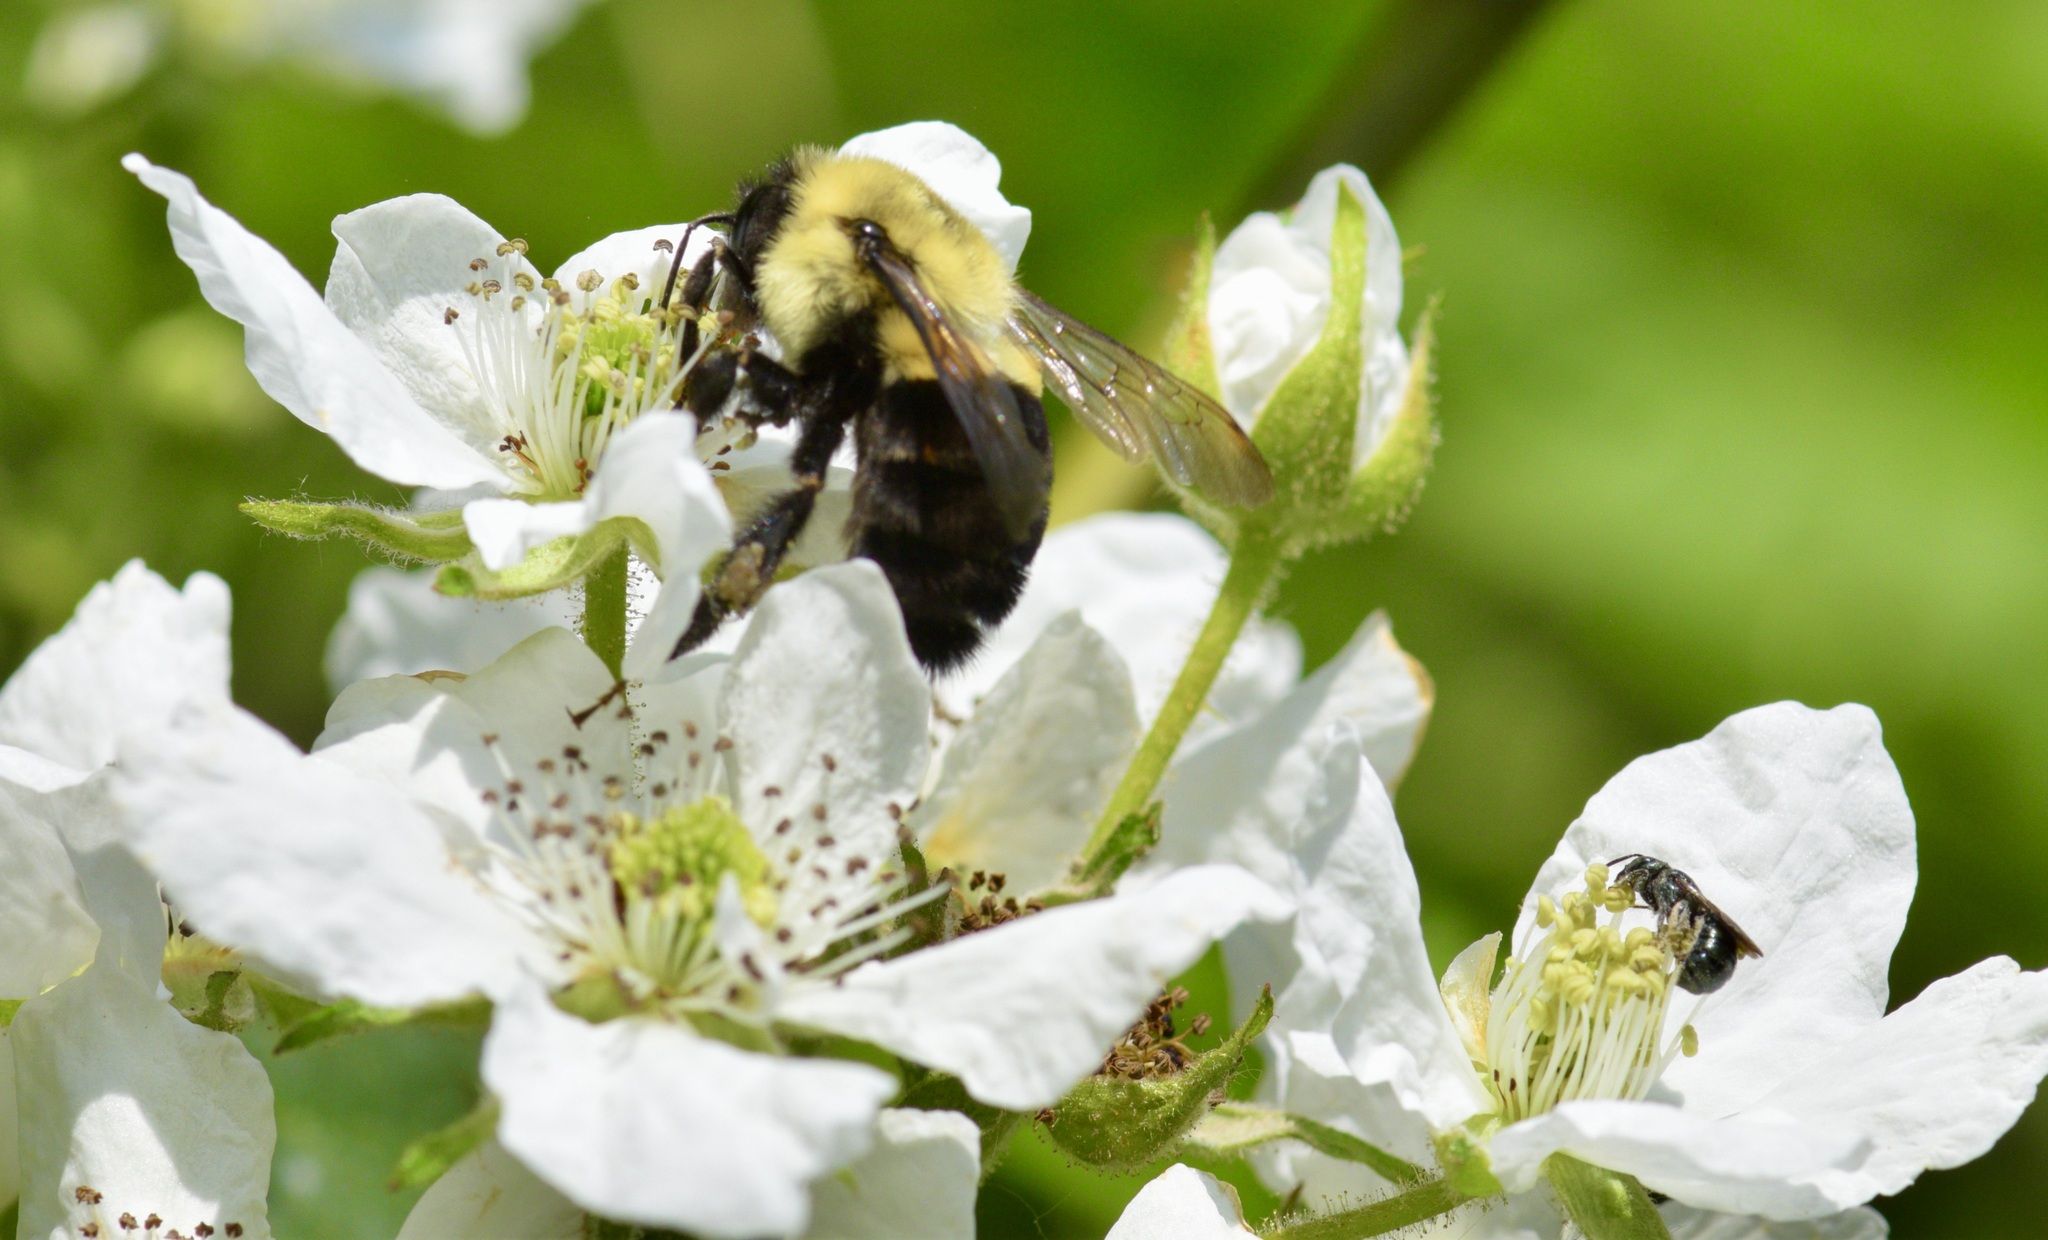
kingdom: Animalia
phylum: Arthropoda
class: Insecta
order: Hymenoptera
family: Apidae
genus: Bombus
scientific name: Bombus impatiens
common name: Common eastern bumble bee
